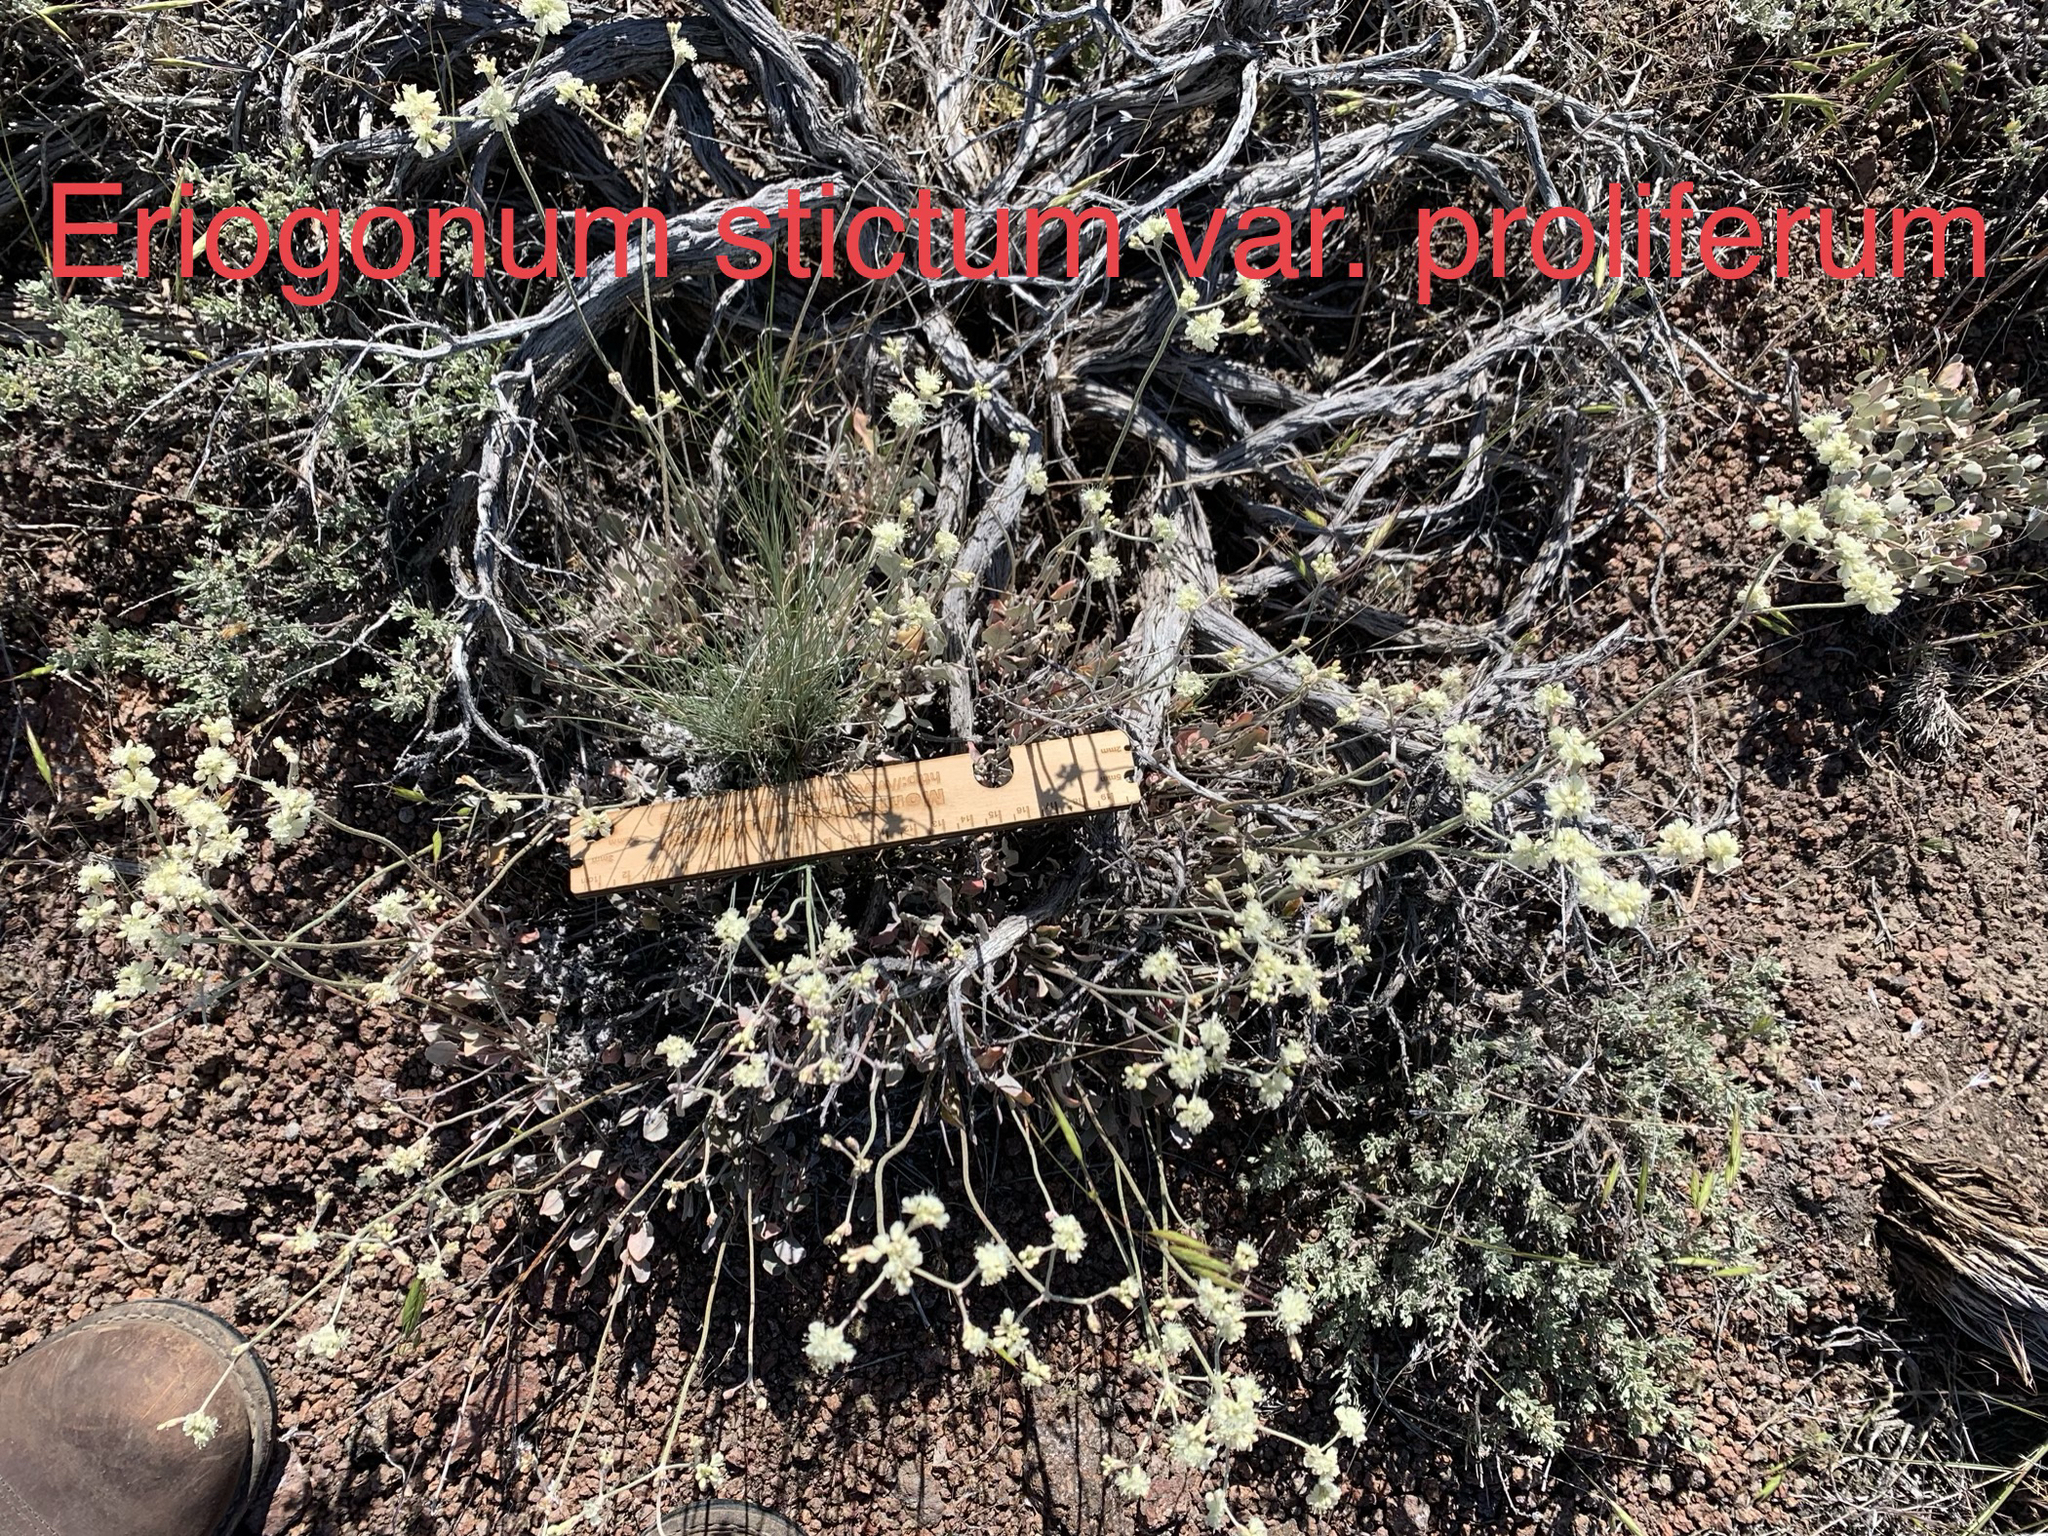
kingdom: Plantae
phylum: Tracheophyta
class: Magnoliopsida
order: Caryophyllales
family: Polygonaceae
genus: Eriogonum
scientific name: Eriogonum strictum
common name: Blue mountain buckwheat
